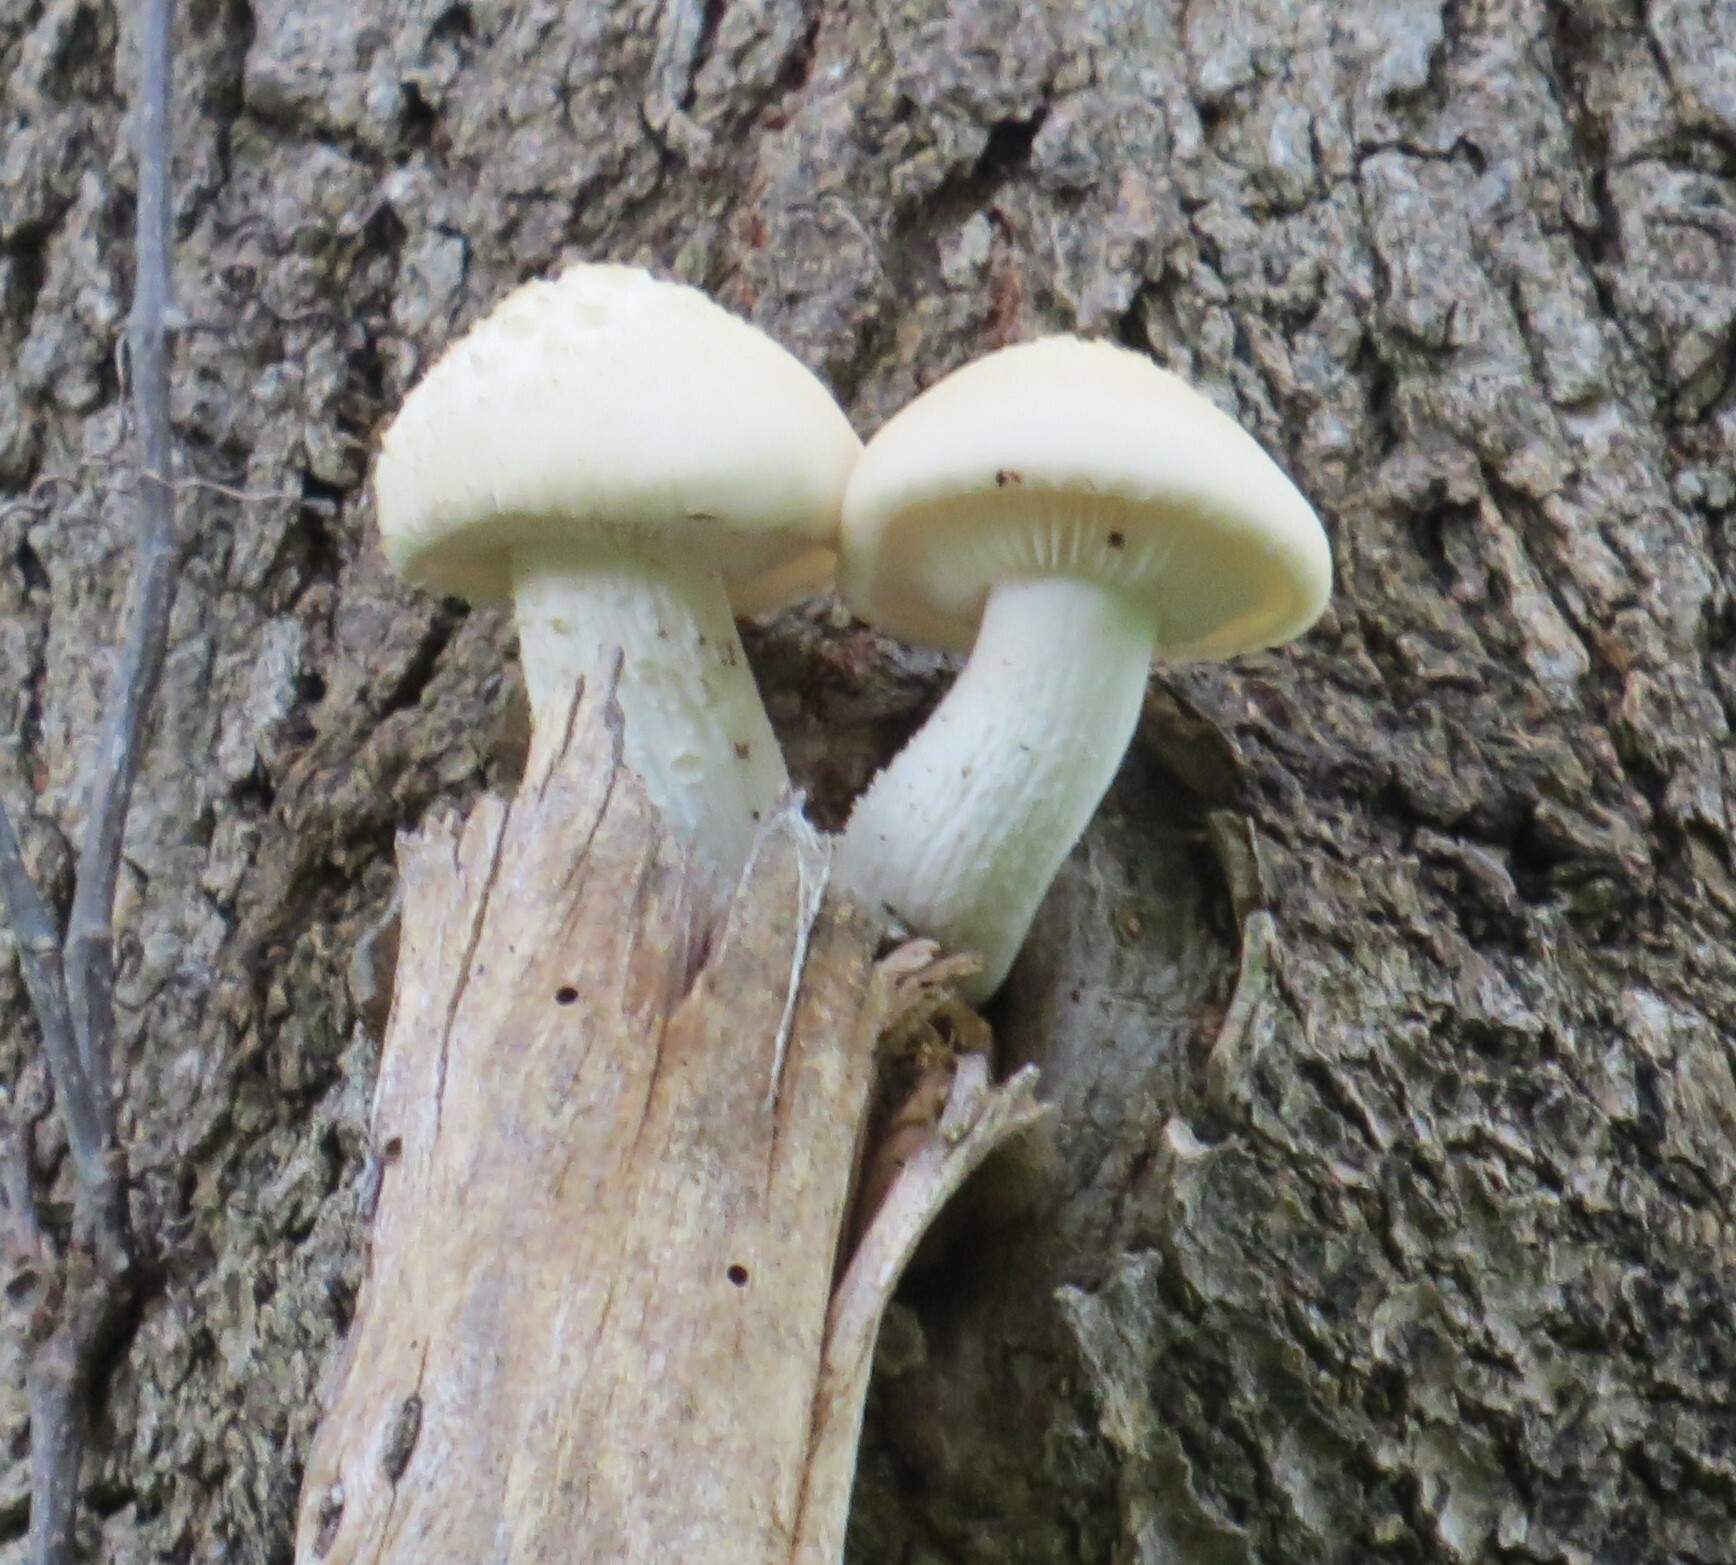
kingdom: Fungi
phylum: Basidiomycota
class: Agaricomycetes
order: Agaricales
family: Lyophyllaceae
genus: Hypsizygus
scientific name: Hypsizygus ulmarius
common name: Elm leech
